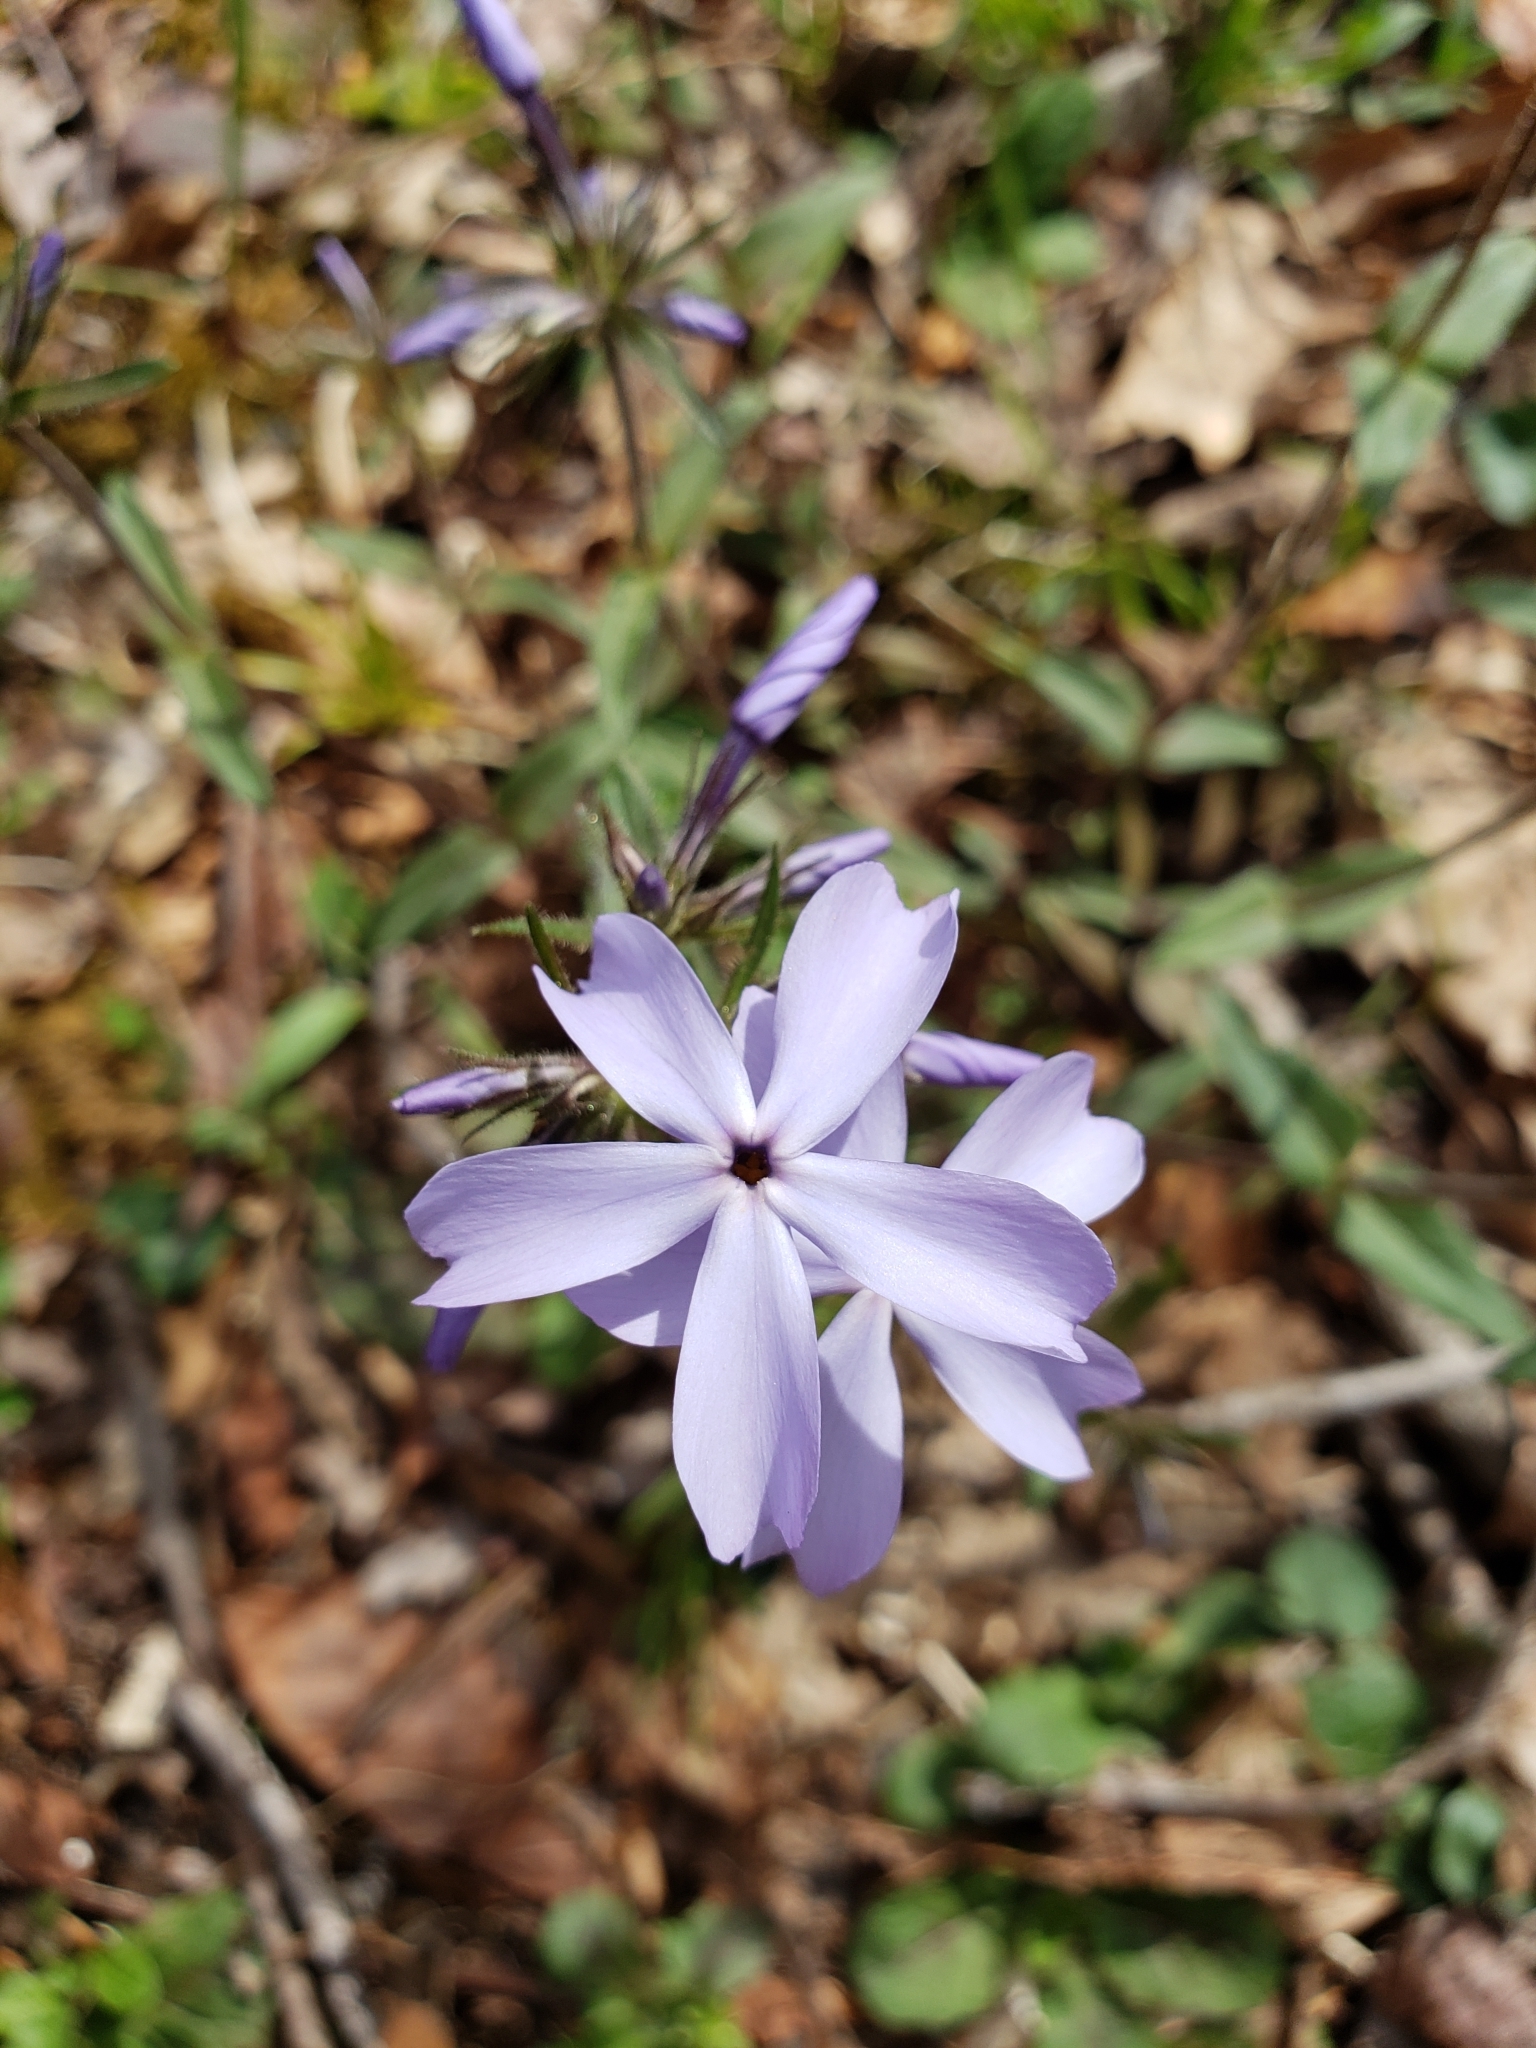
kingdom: Plantae
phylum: Tracheophyta
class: Magnoliopsida
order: Ericales
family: Polemoniaceae
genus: Phlox
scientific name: Phlox divaricata
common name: Blue phlox
